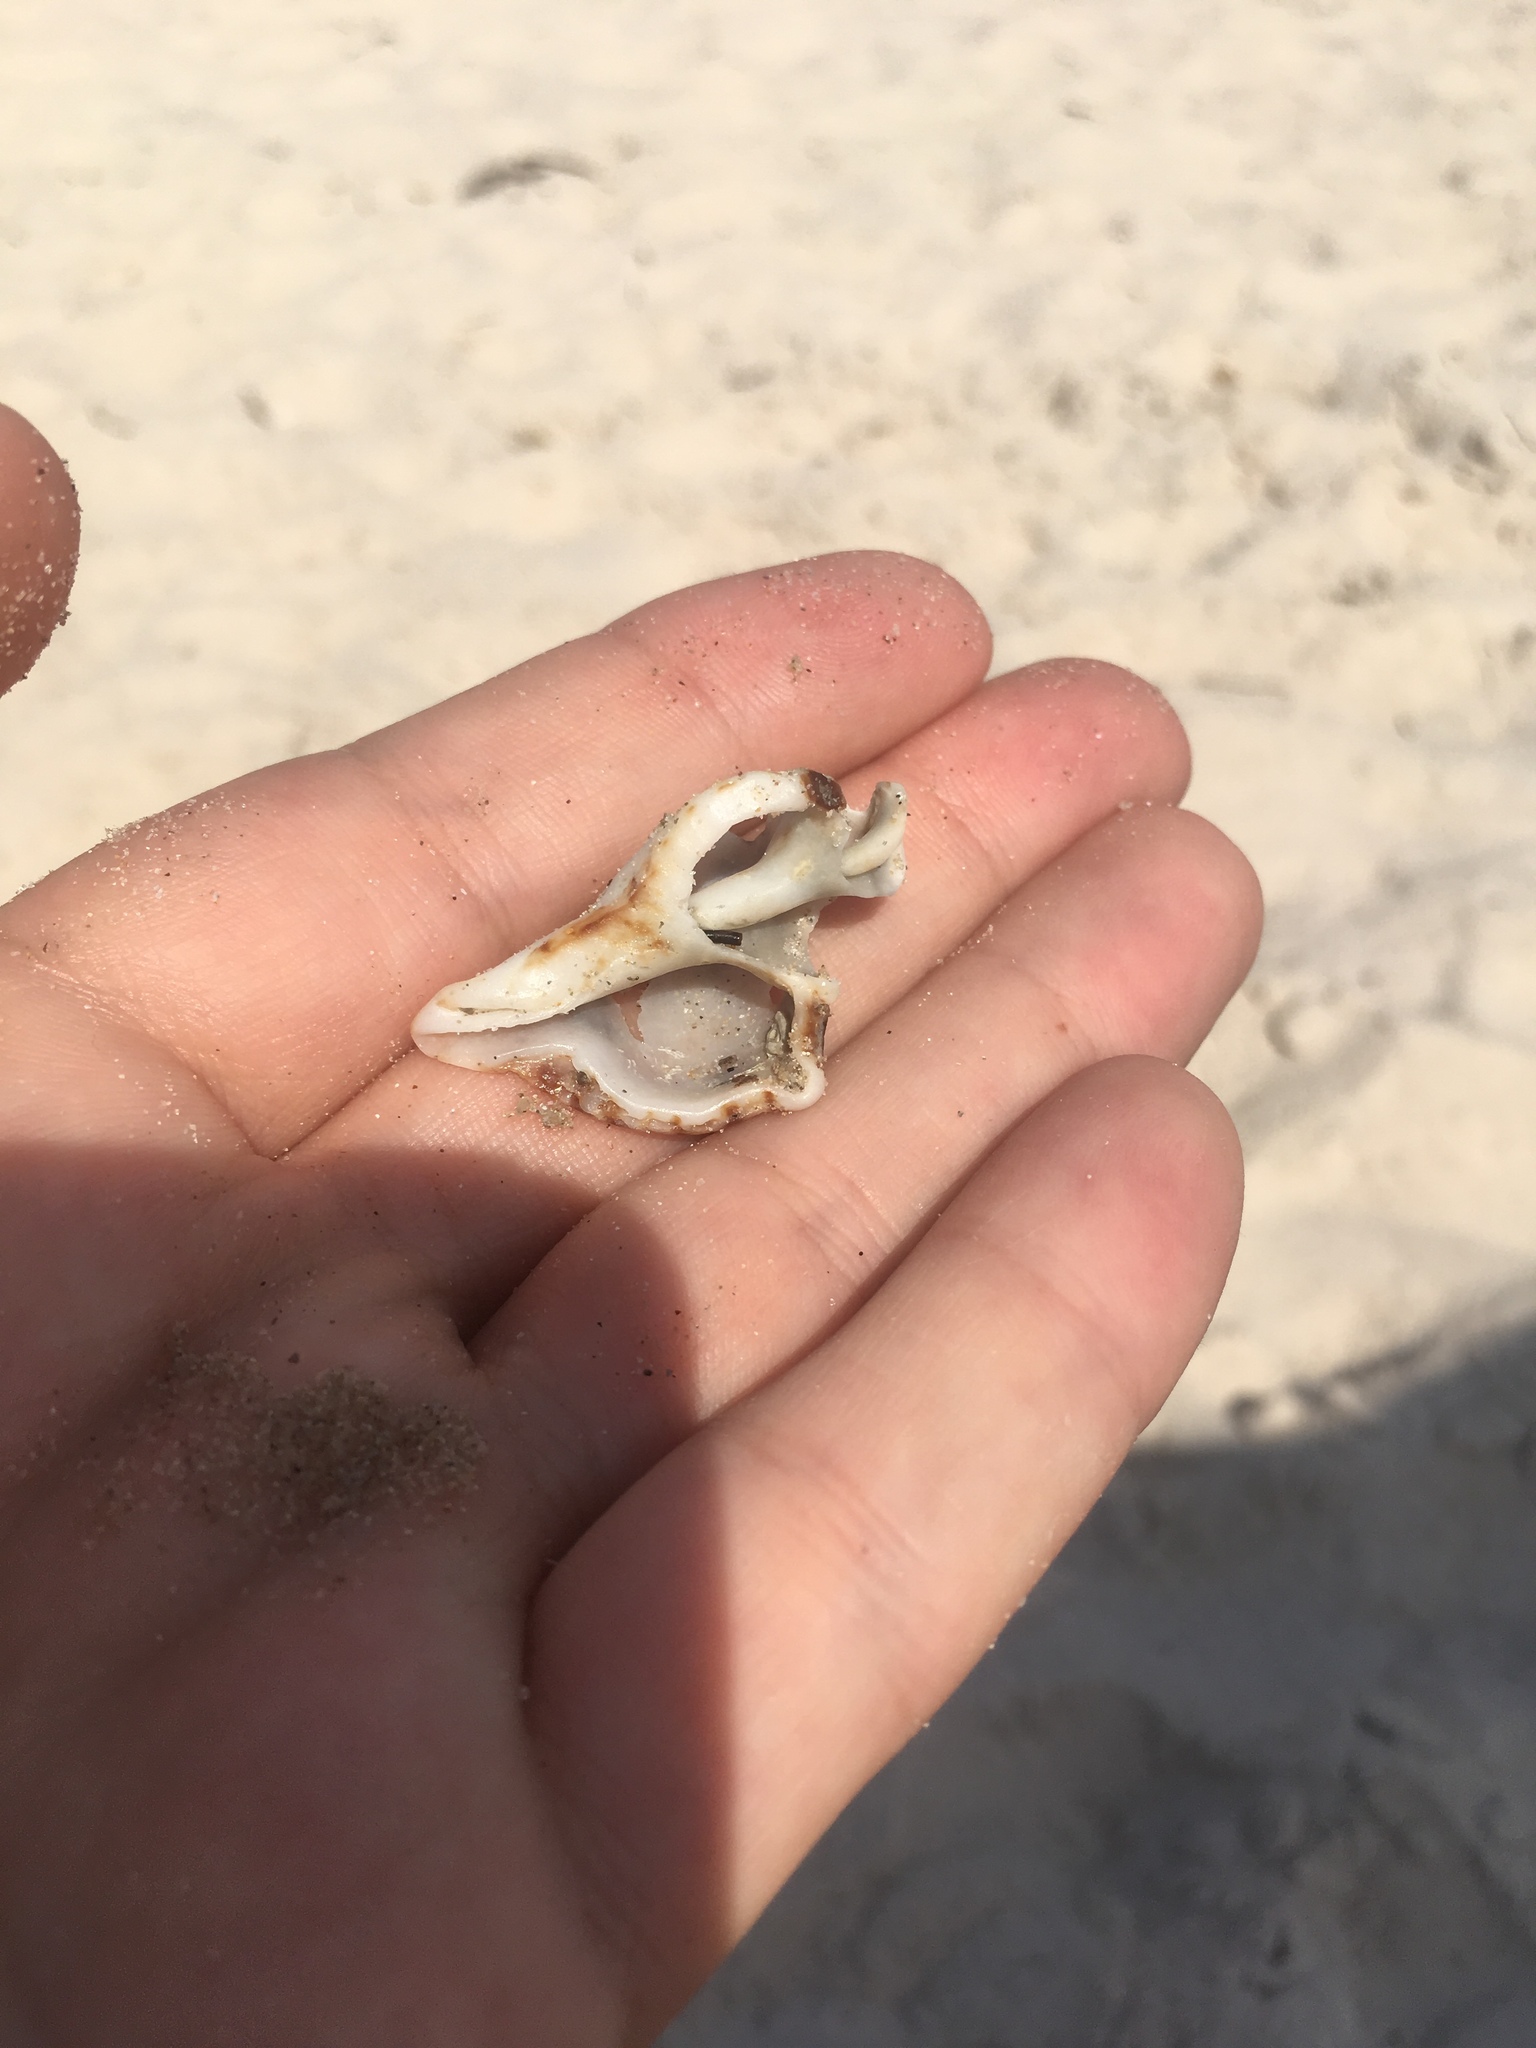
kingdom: Animalia
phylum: Mollusca
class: Gastropoda
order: Neogastropoda
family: Muricidae
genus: Pterochelus
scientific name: Pterochelus triformis
